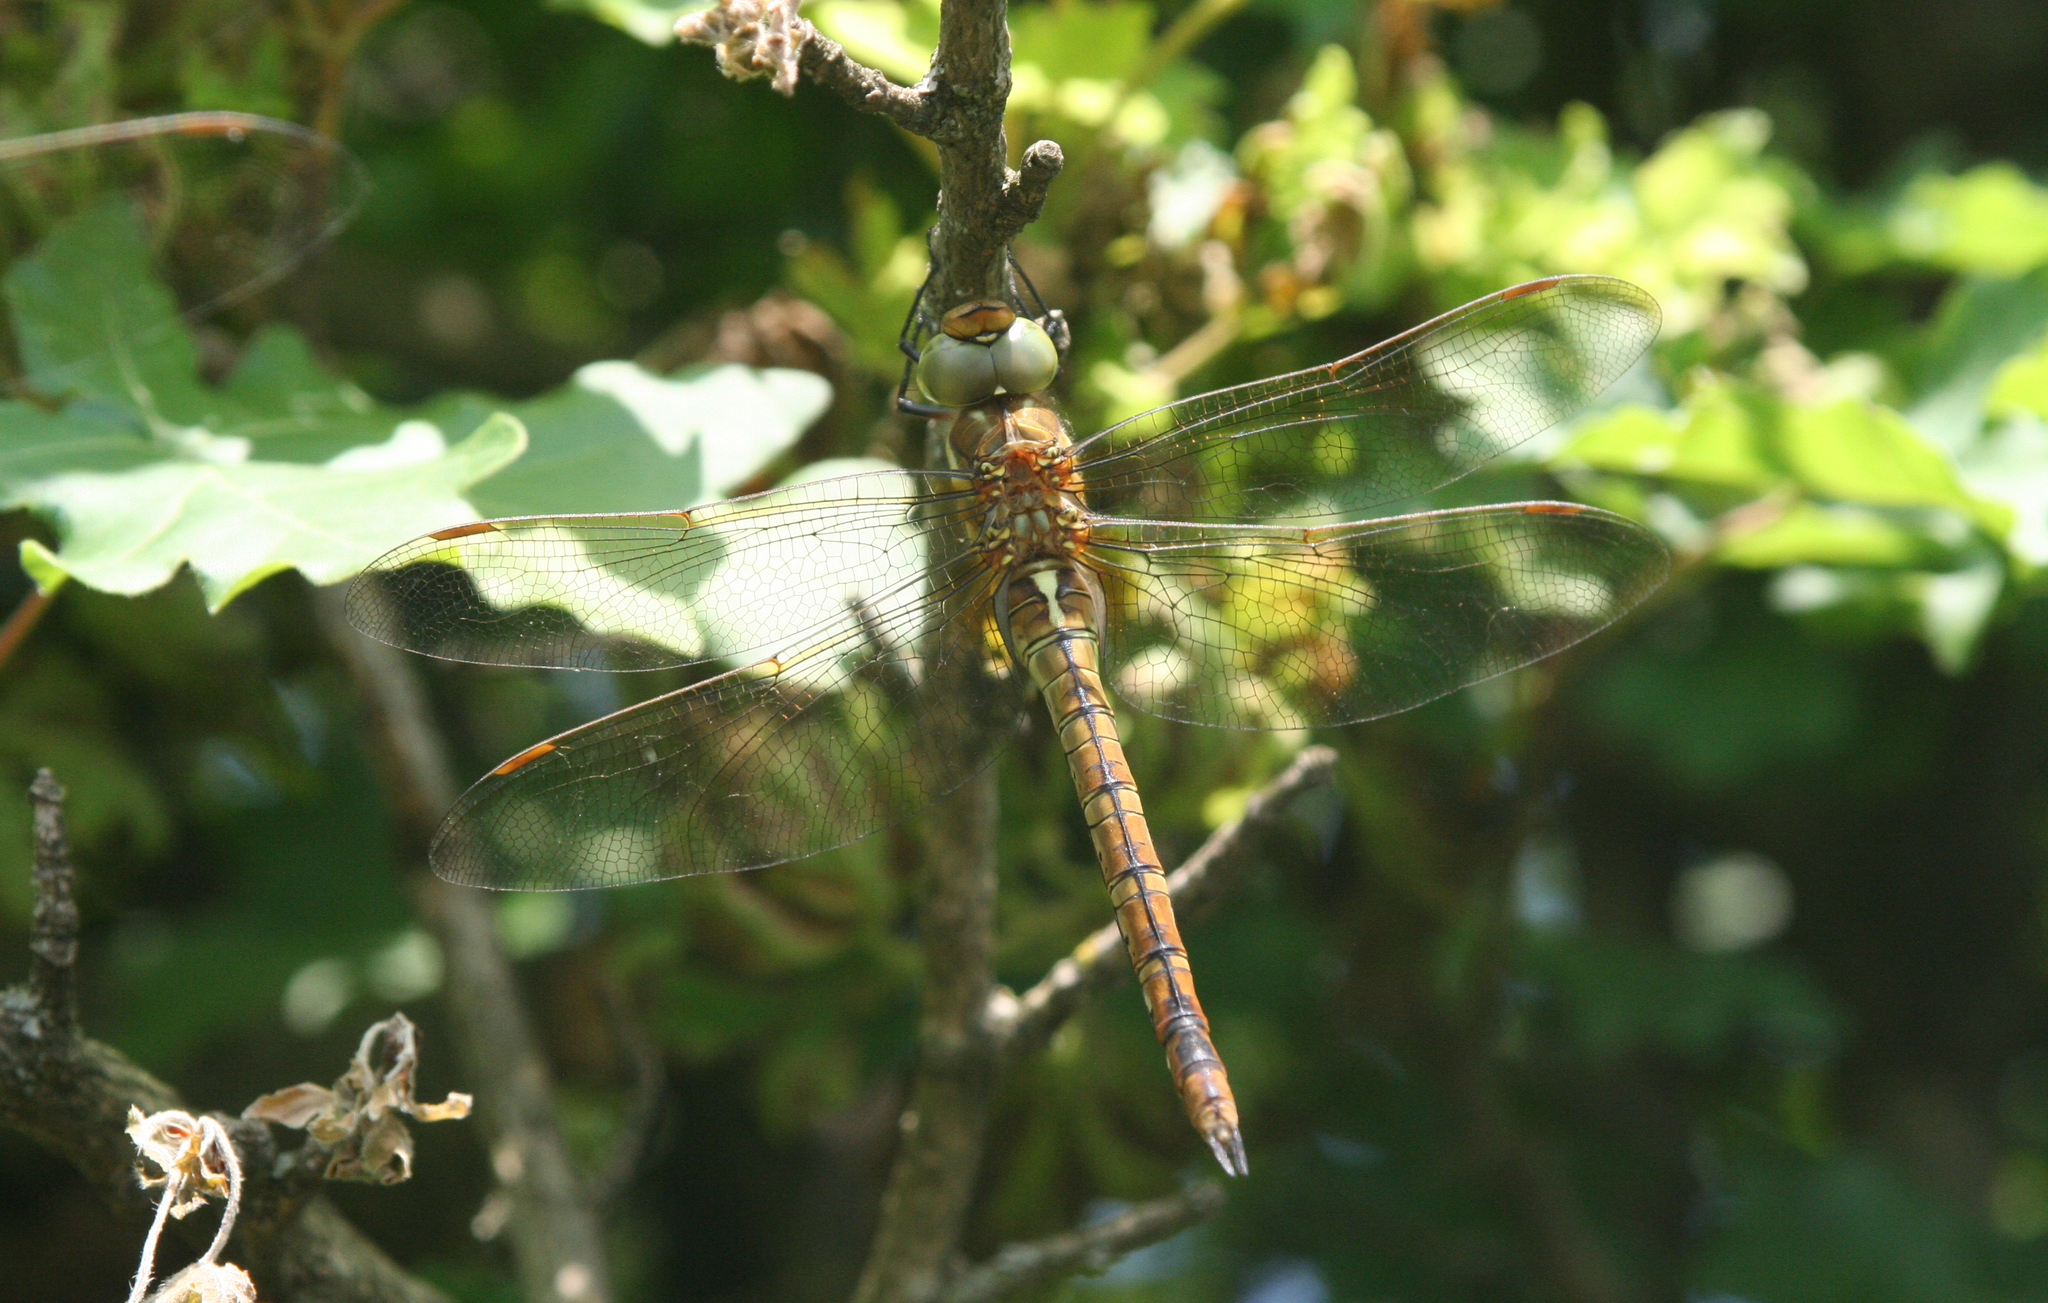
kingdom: Animalia
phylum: Arthropoda
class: Insecta
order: Odonata
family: Aeshnidae
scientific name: Aeshnidae
